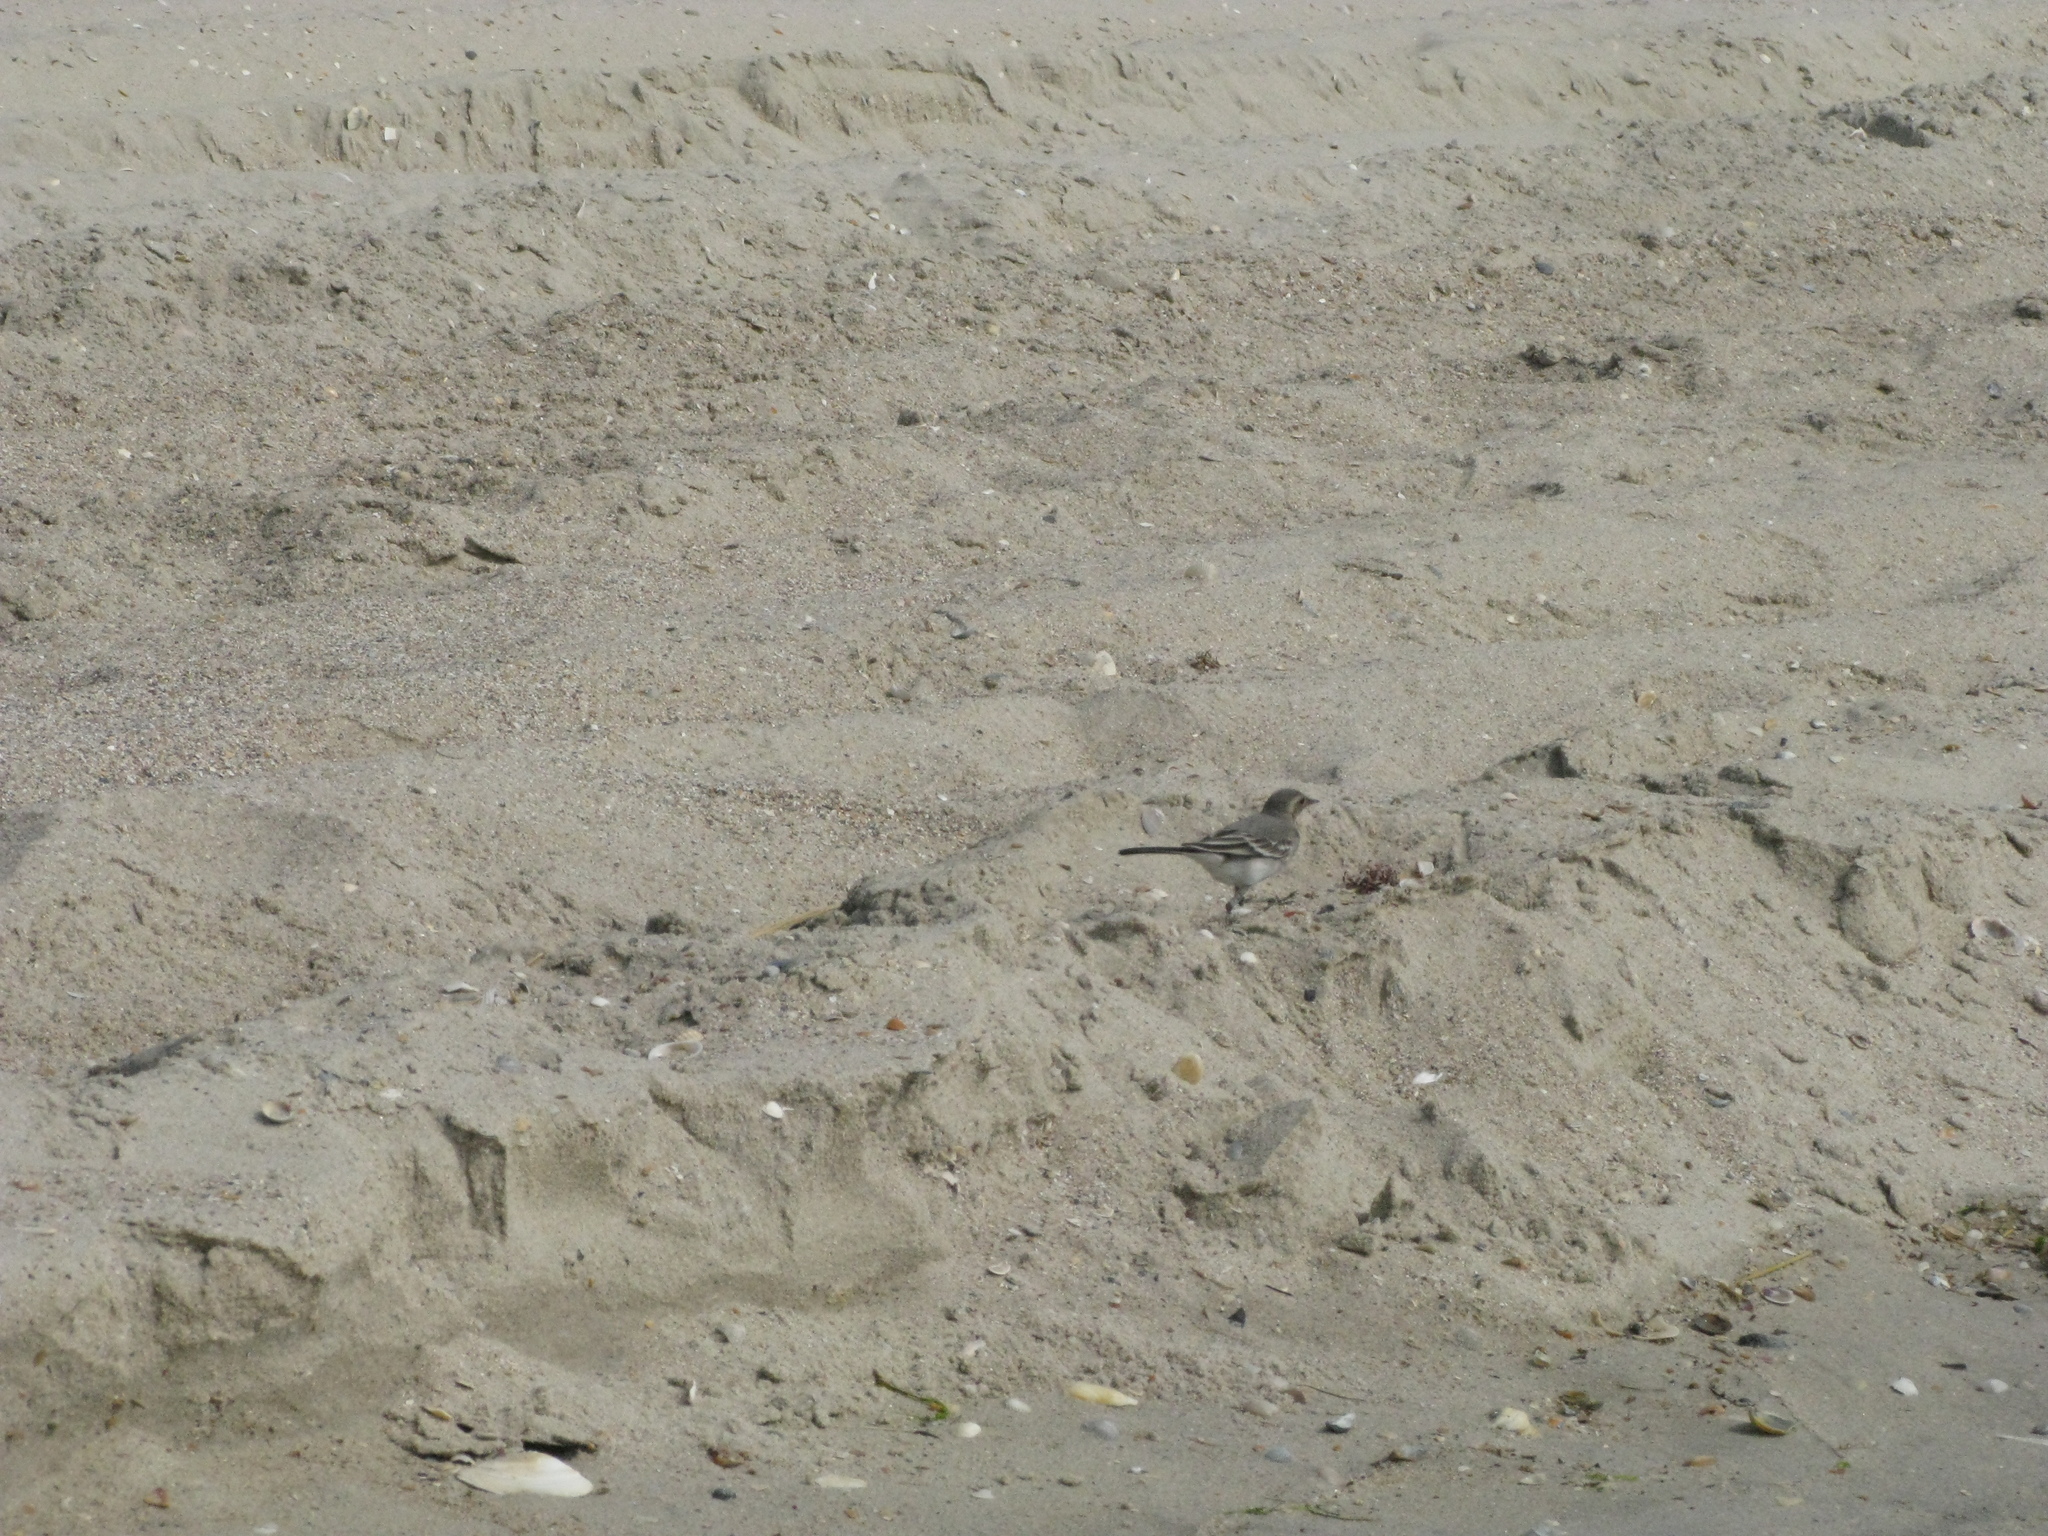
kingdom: Animalia
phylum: Chordata
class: Aves
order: Passeriformes
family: Motacillidae
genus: Motacilla
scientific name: Motacilla alba
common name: White wagtail
